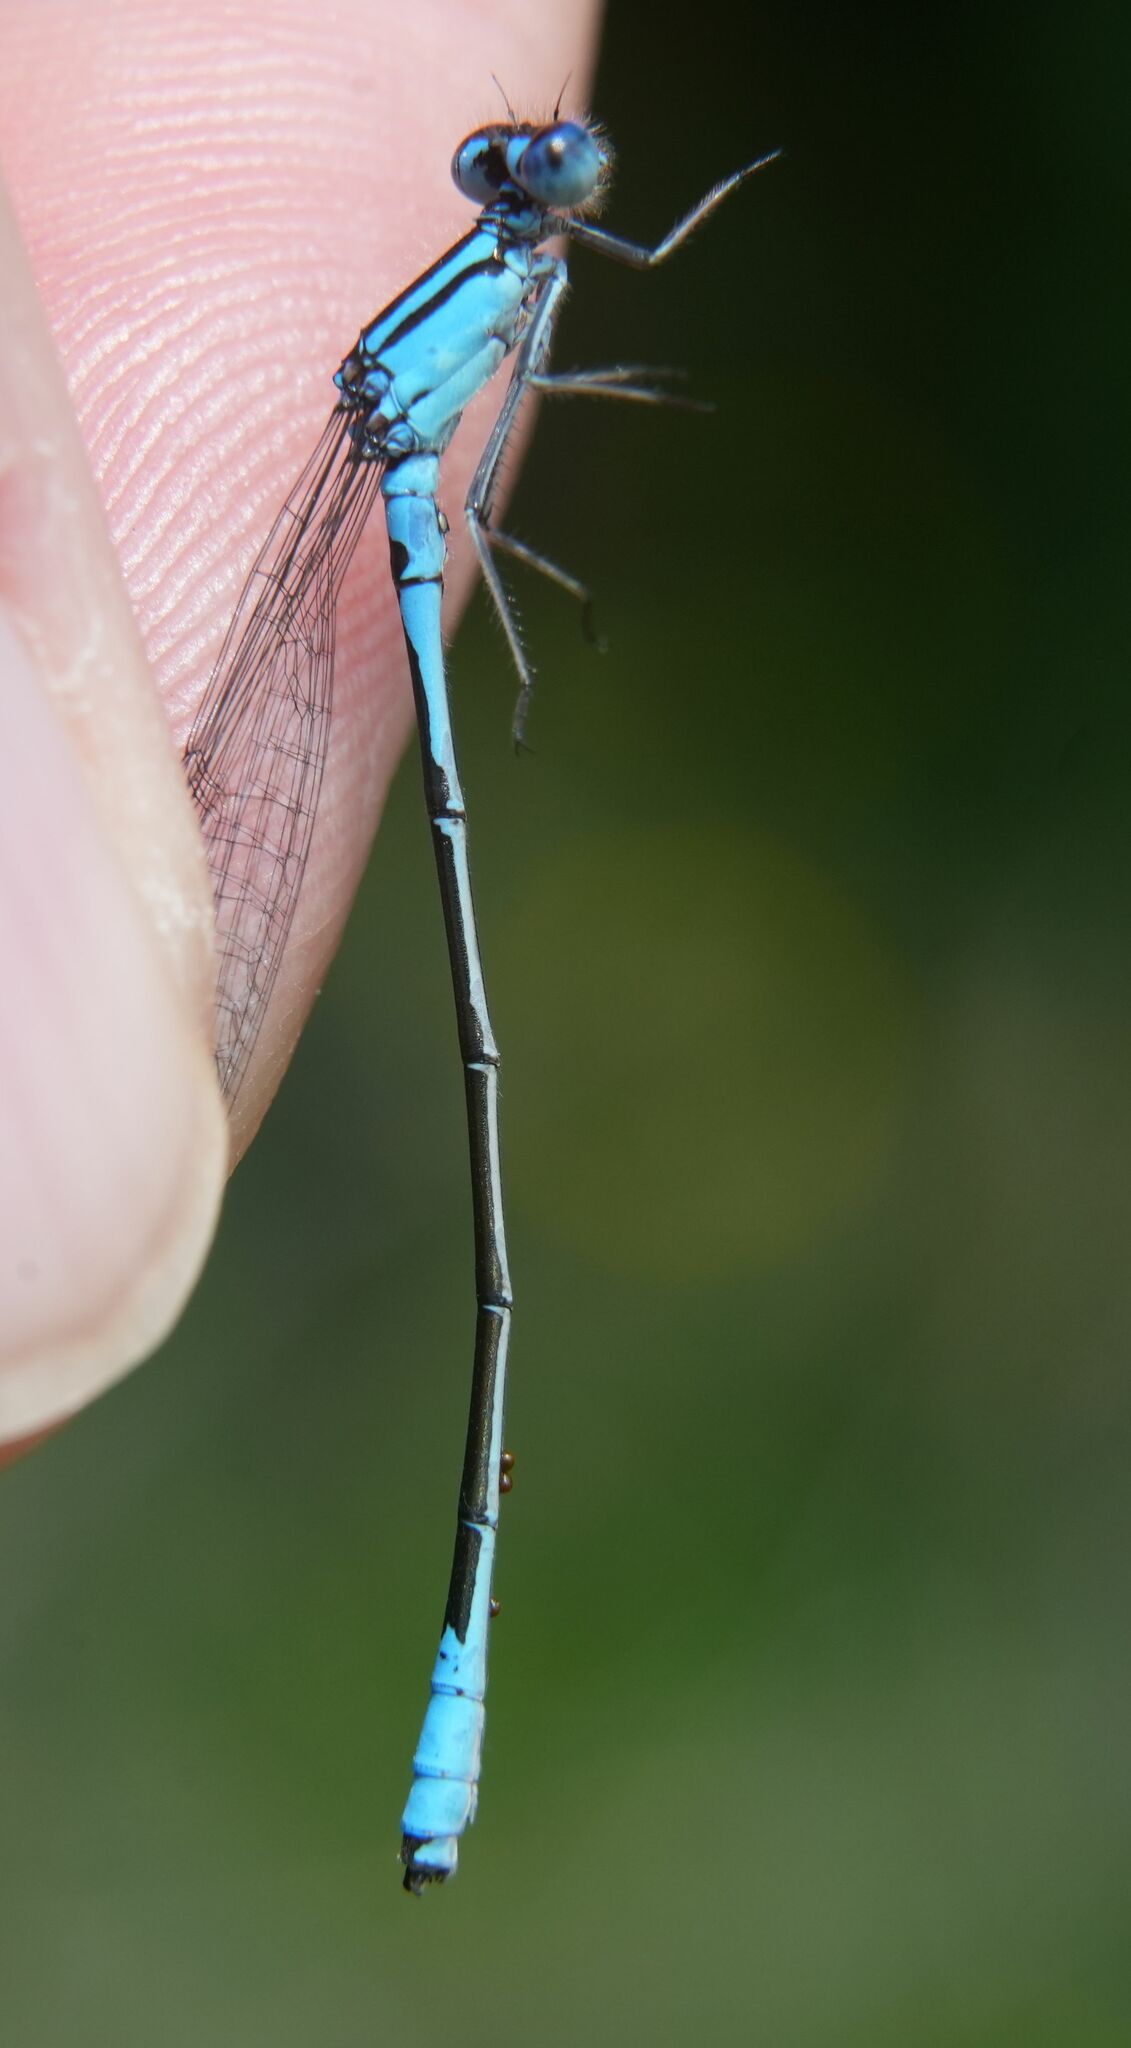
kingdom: Animalia
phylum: Arthropoda
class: Insecta
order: Odonata
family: Coenagrionidae
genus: Enallagma
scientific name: Enallagma aspersum
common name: Azure bluet
